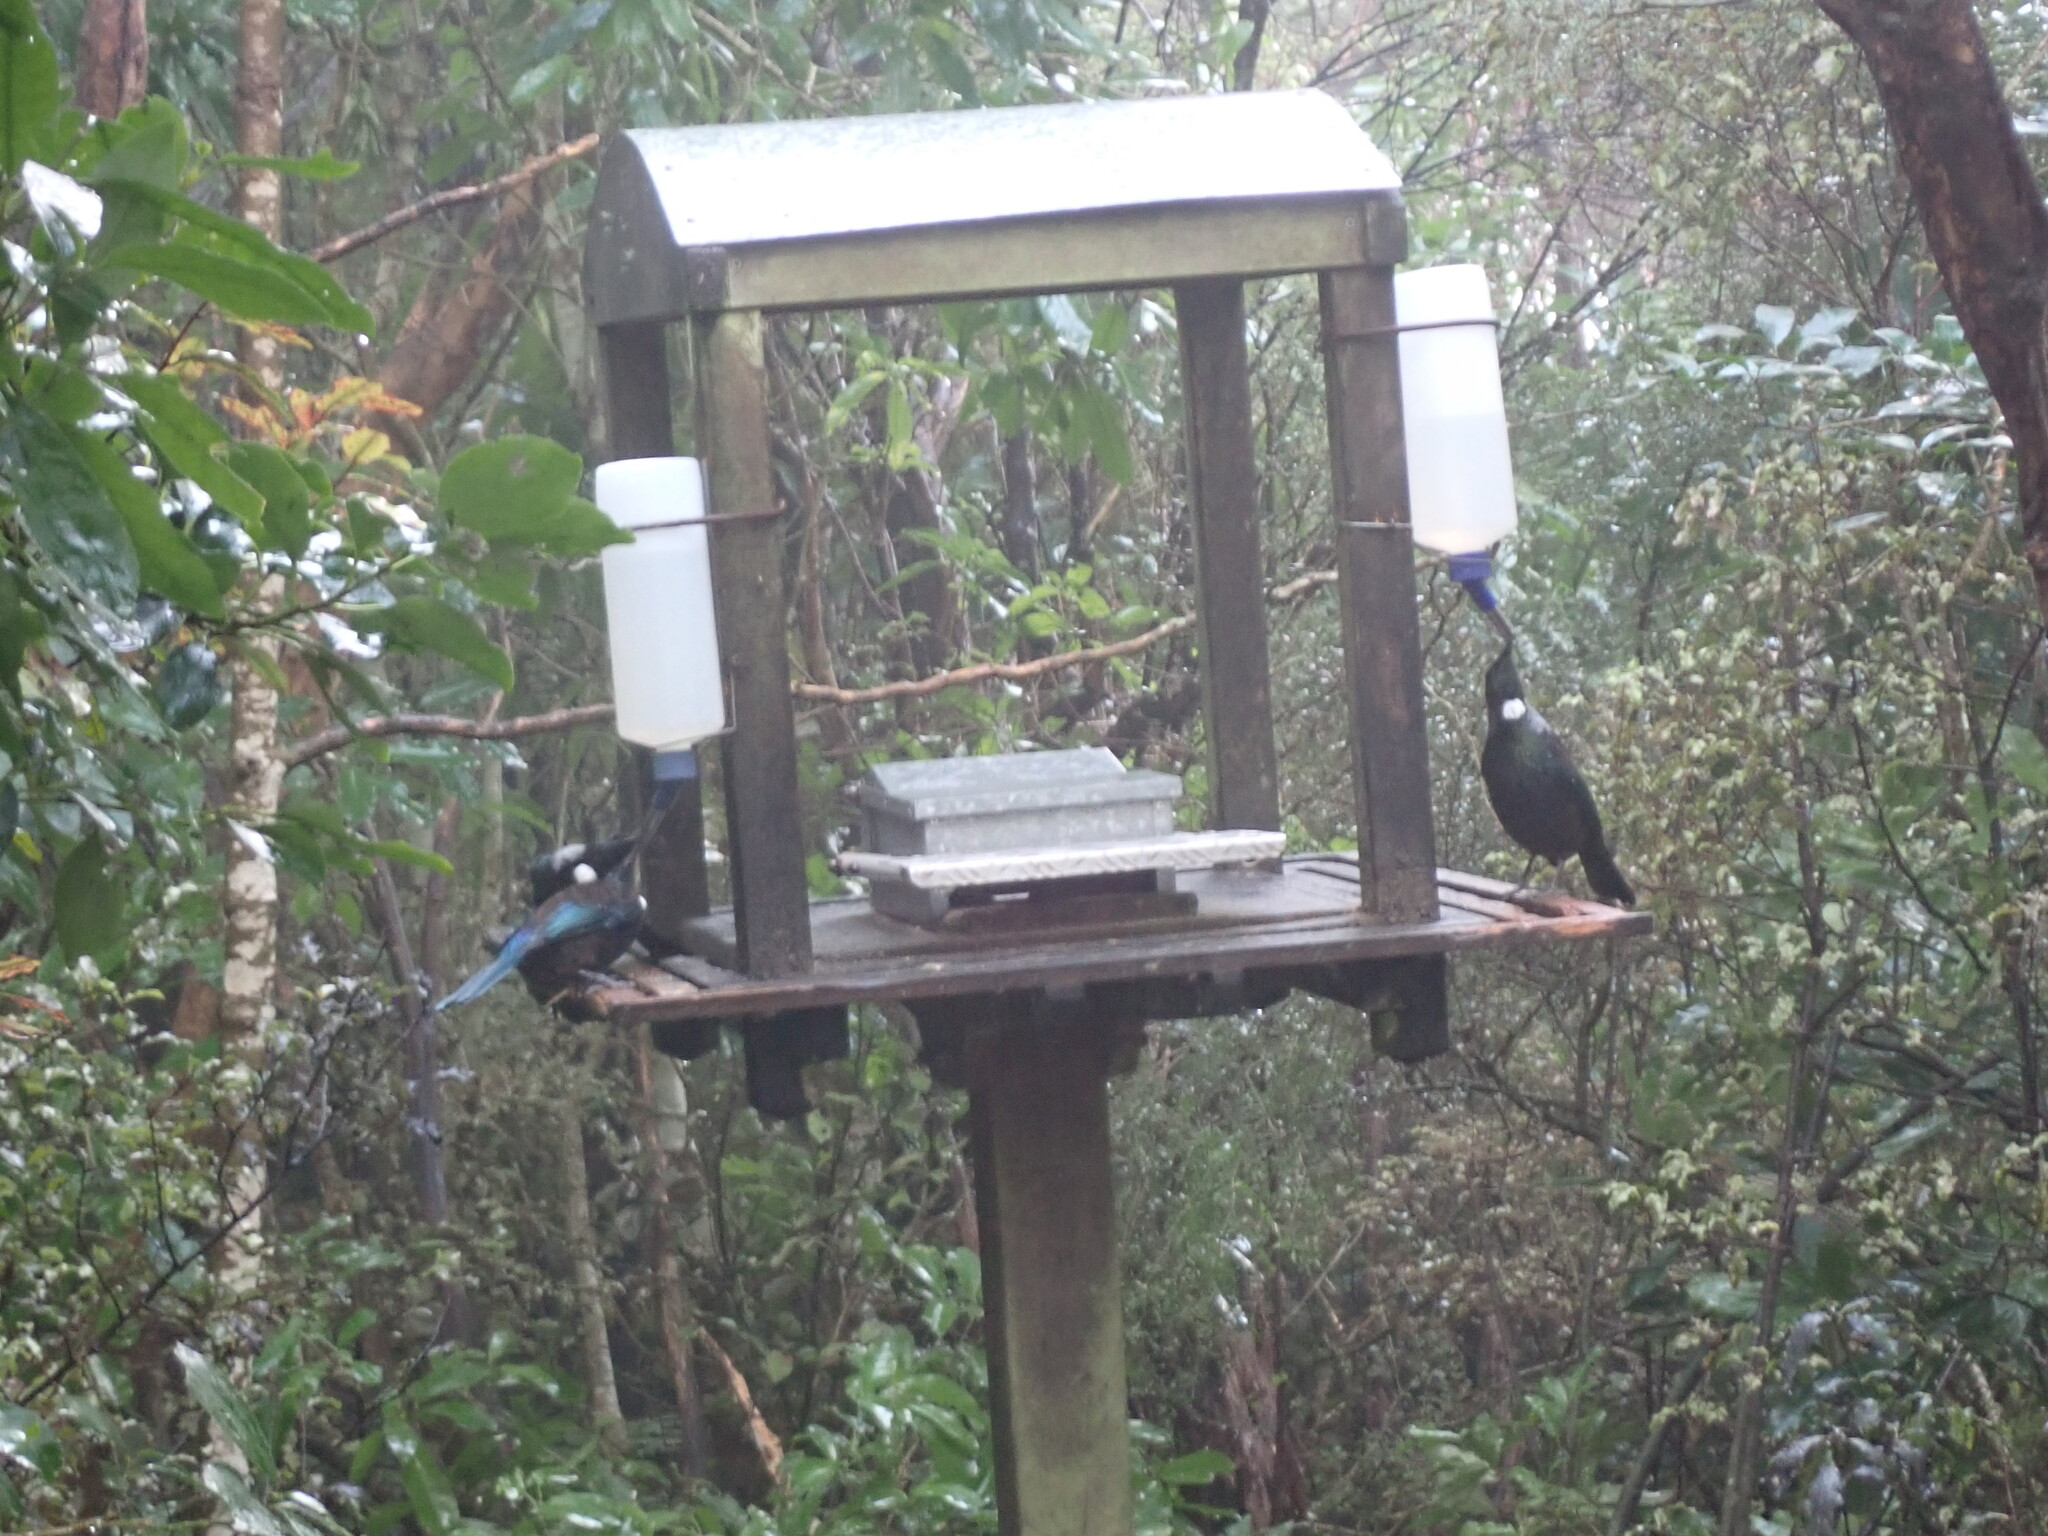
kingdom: Animalia
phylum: Chordata
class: Aves
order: Passeriformes
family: Meliphagidae
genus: Prosthemadera
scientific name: Prosthemadera novaeseelandiae
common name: Tui
